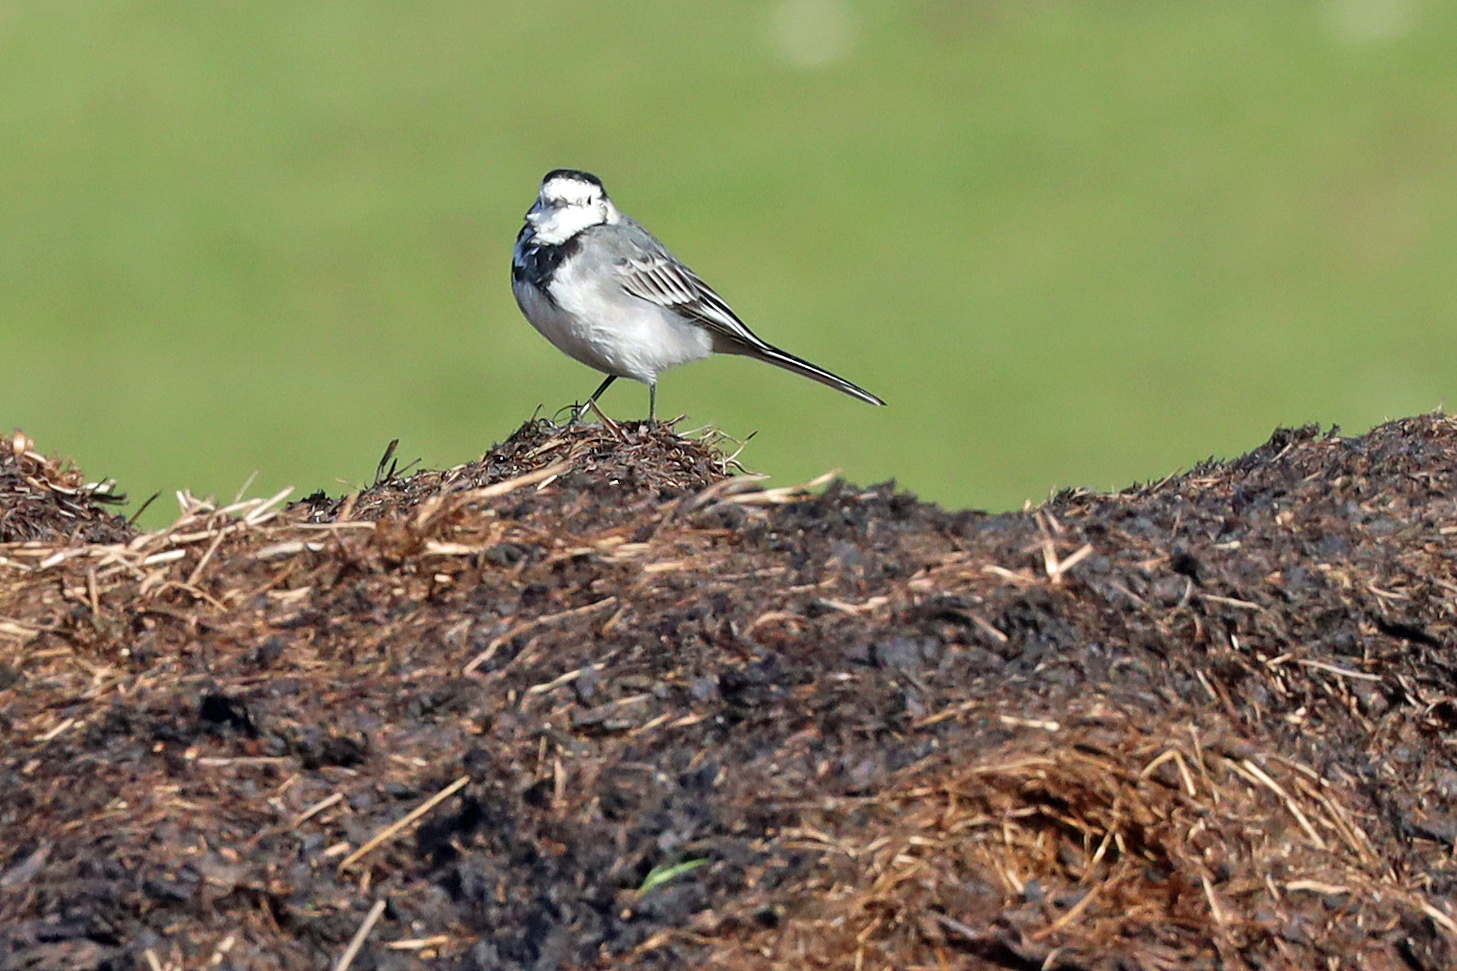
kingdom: Animalia
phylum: Chordata
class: Aves
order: Passeriformes
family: Motacillidae
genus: Motacilla
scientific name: Motacilla alba
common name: White wagtail
